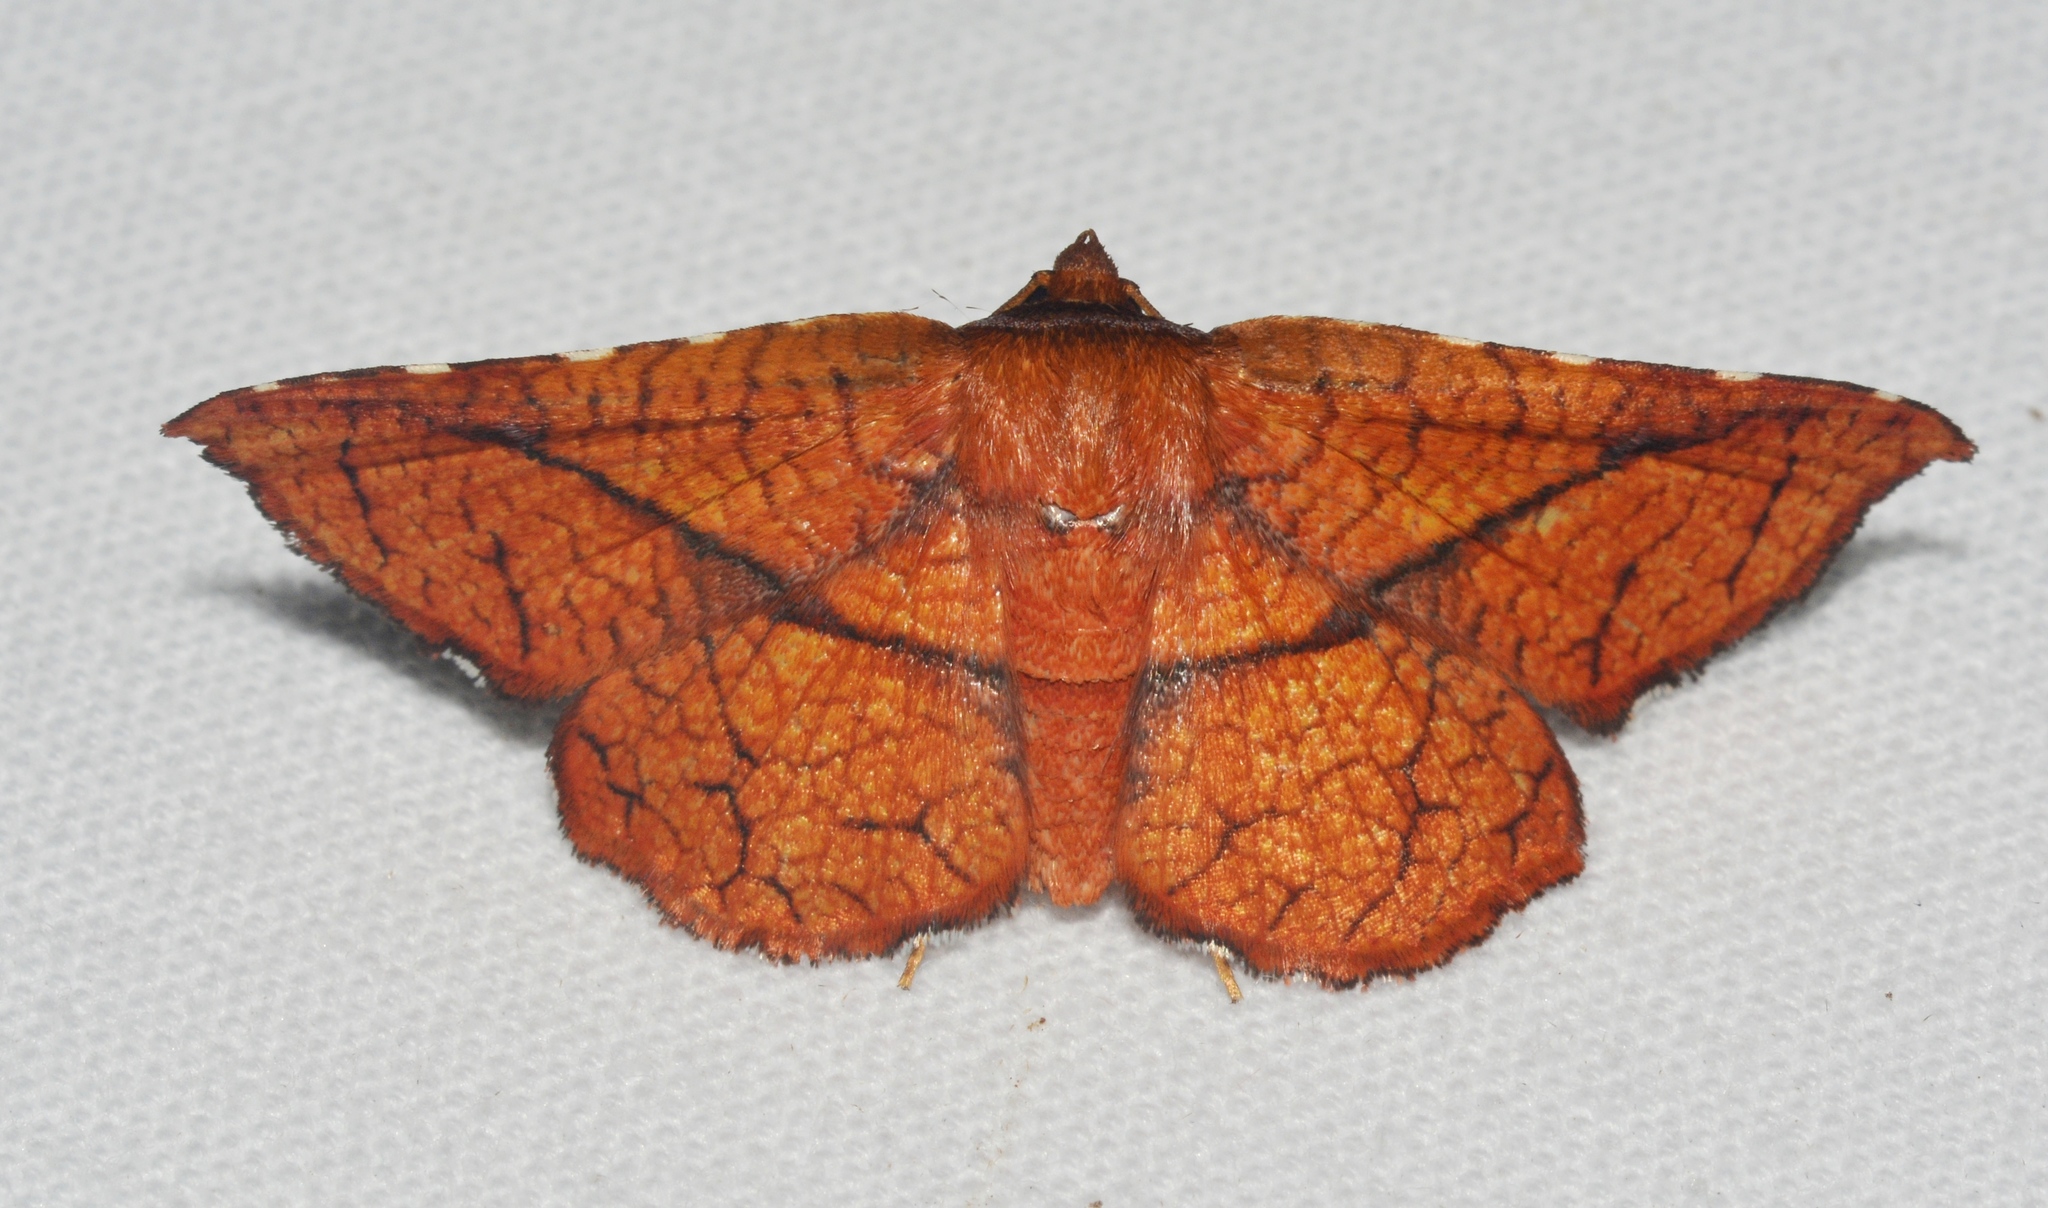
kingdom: Animalia
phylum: Arthropoda
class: Insecta
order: Lepidoptera
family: Thyrididae
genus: Pentina
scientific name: Pentina flammans
